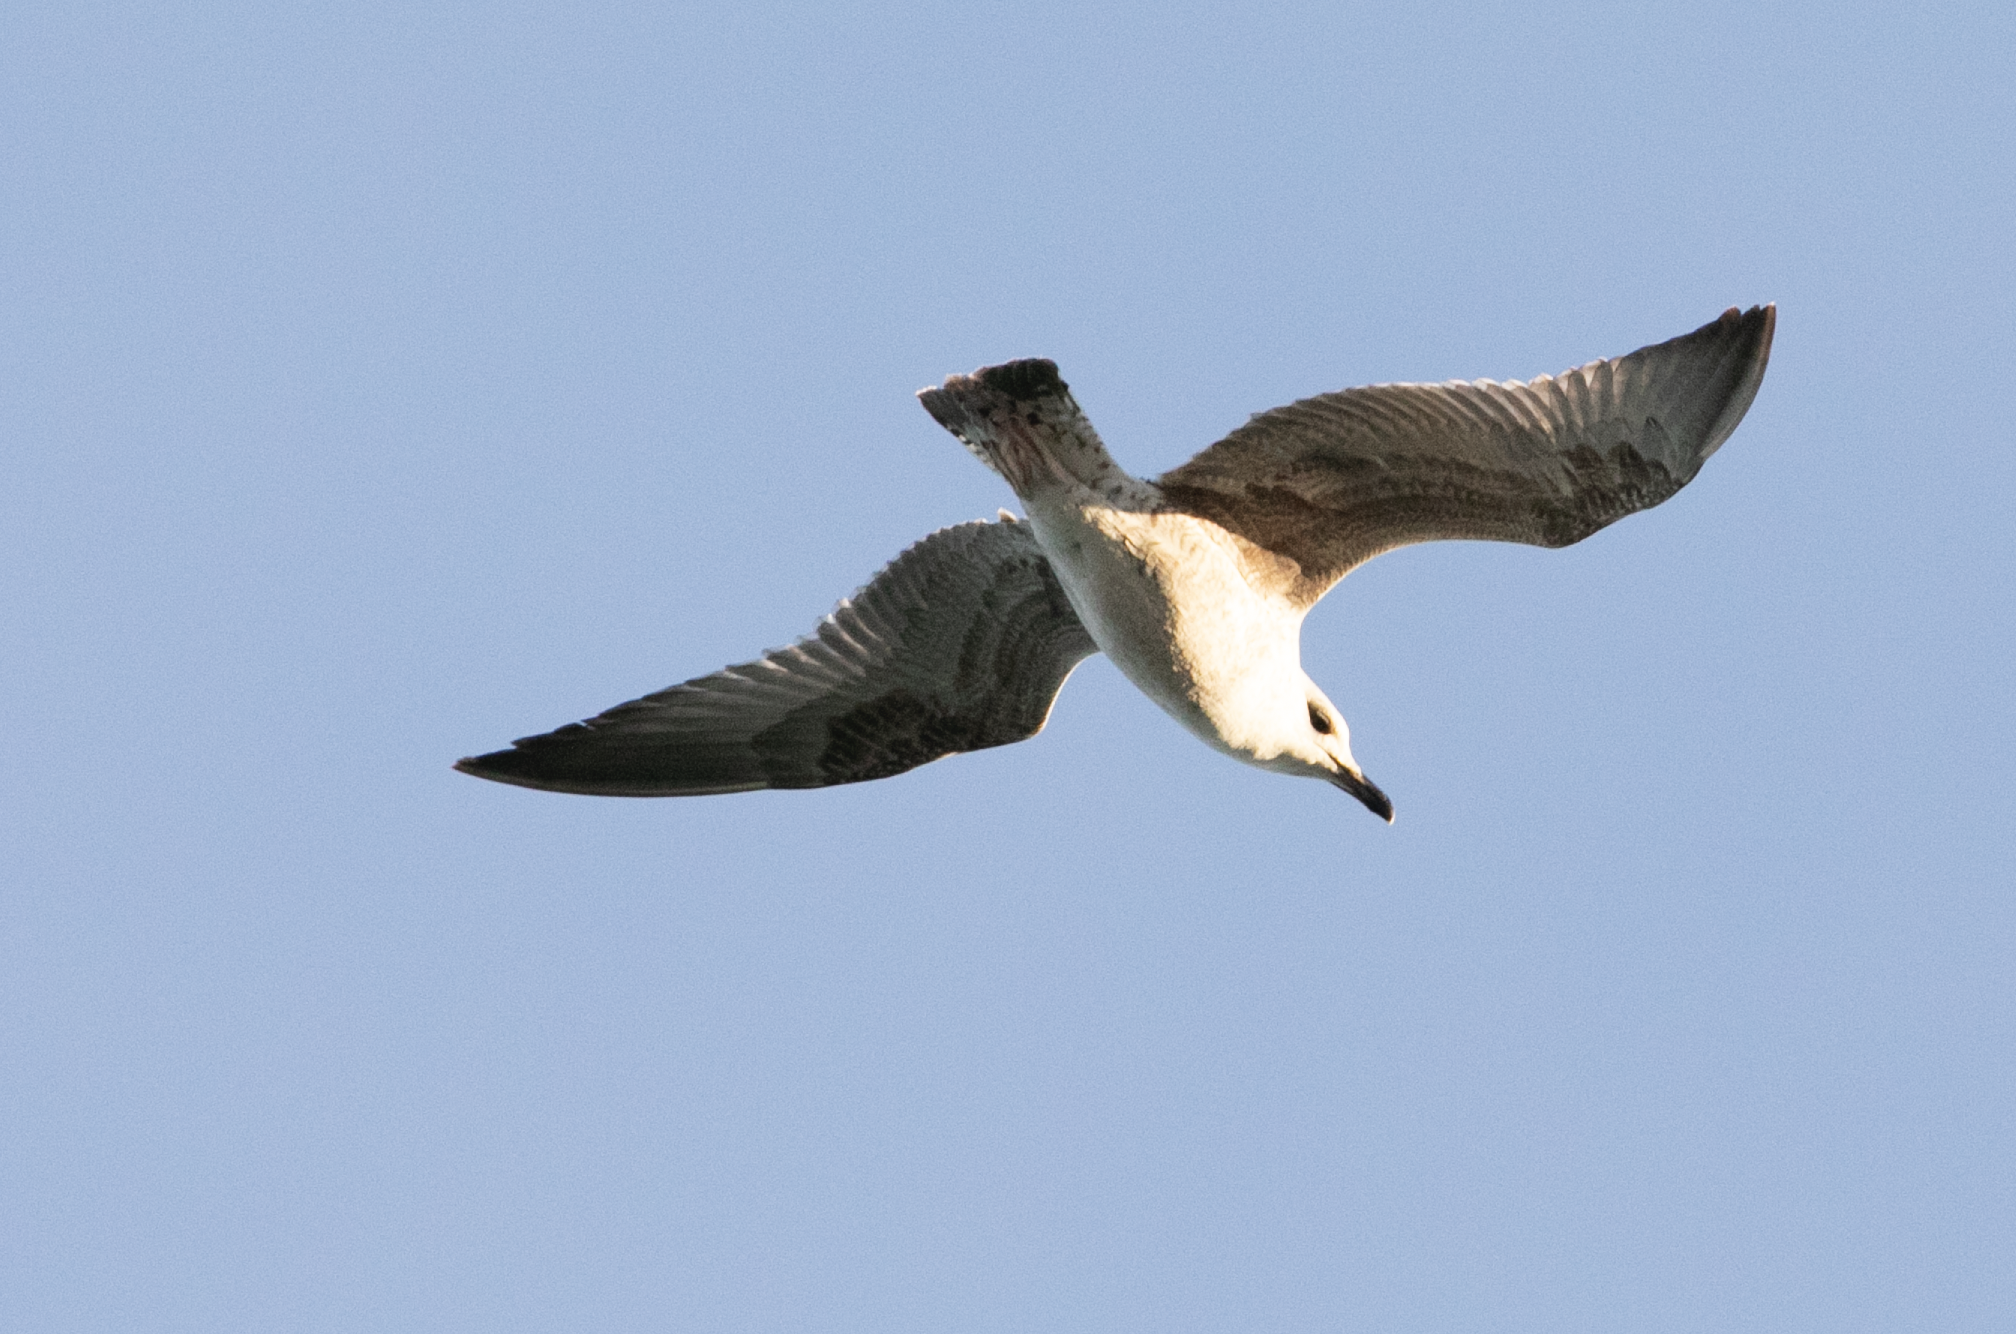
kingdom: Animalia
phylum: Chordata
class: Aves
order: Charadriiformes
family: Laridae
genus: Larus
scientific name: Larus michahellis
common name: Yellow-legged gull
